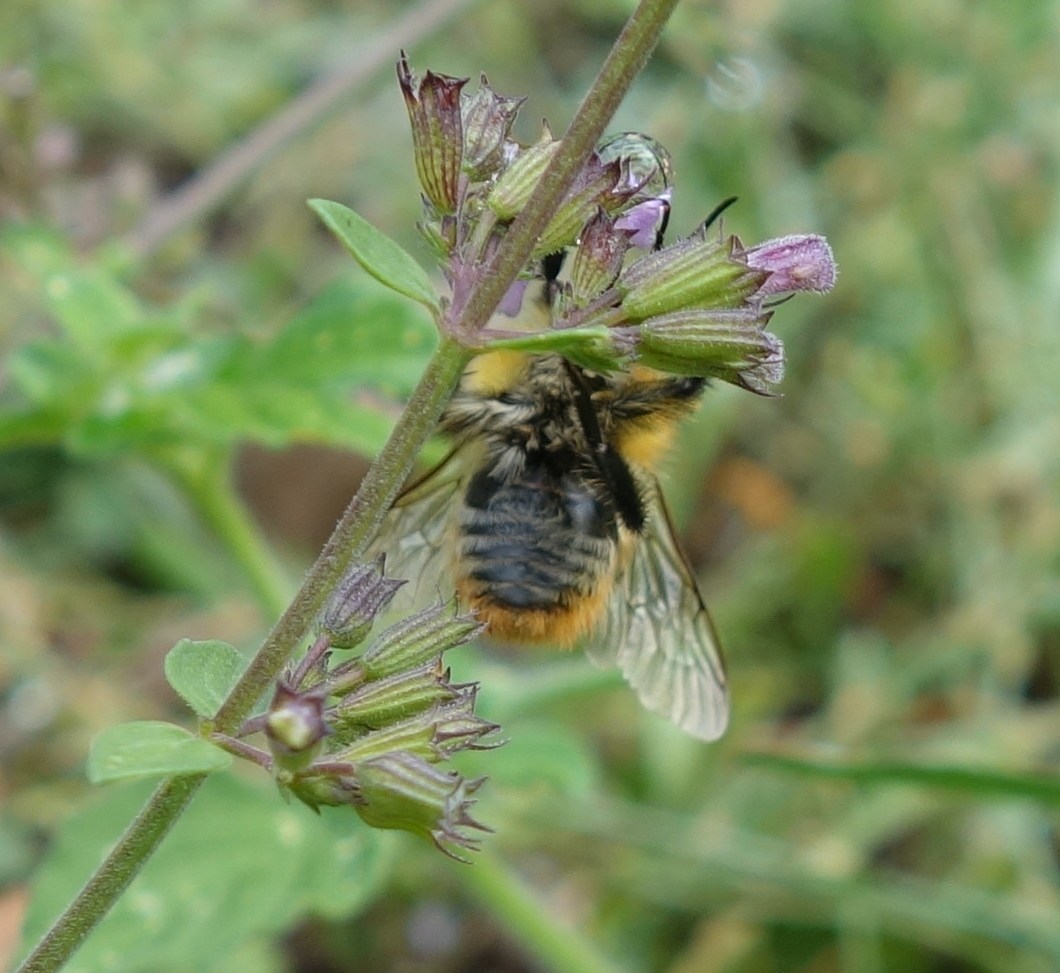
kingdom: Animalia
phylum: Arthropoda
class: Insecta
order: Hymenoptera
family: Apidae
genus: Bombus
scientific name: Bombus pascuorum
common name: Common carder bee
